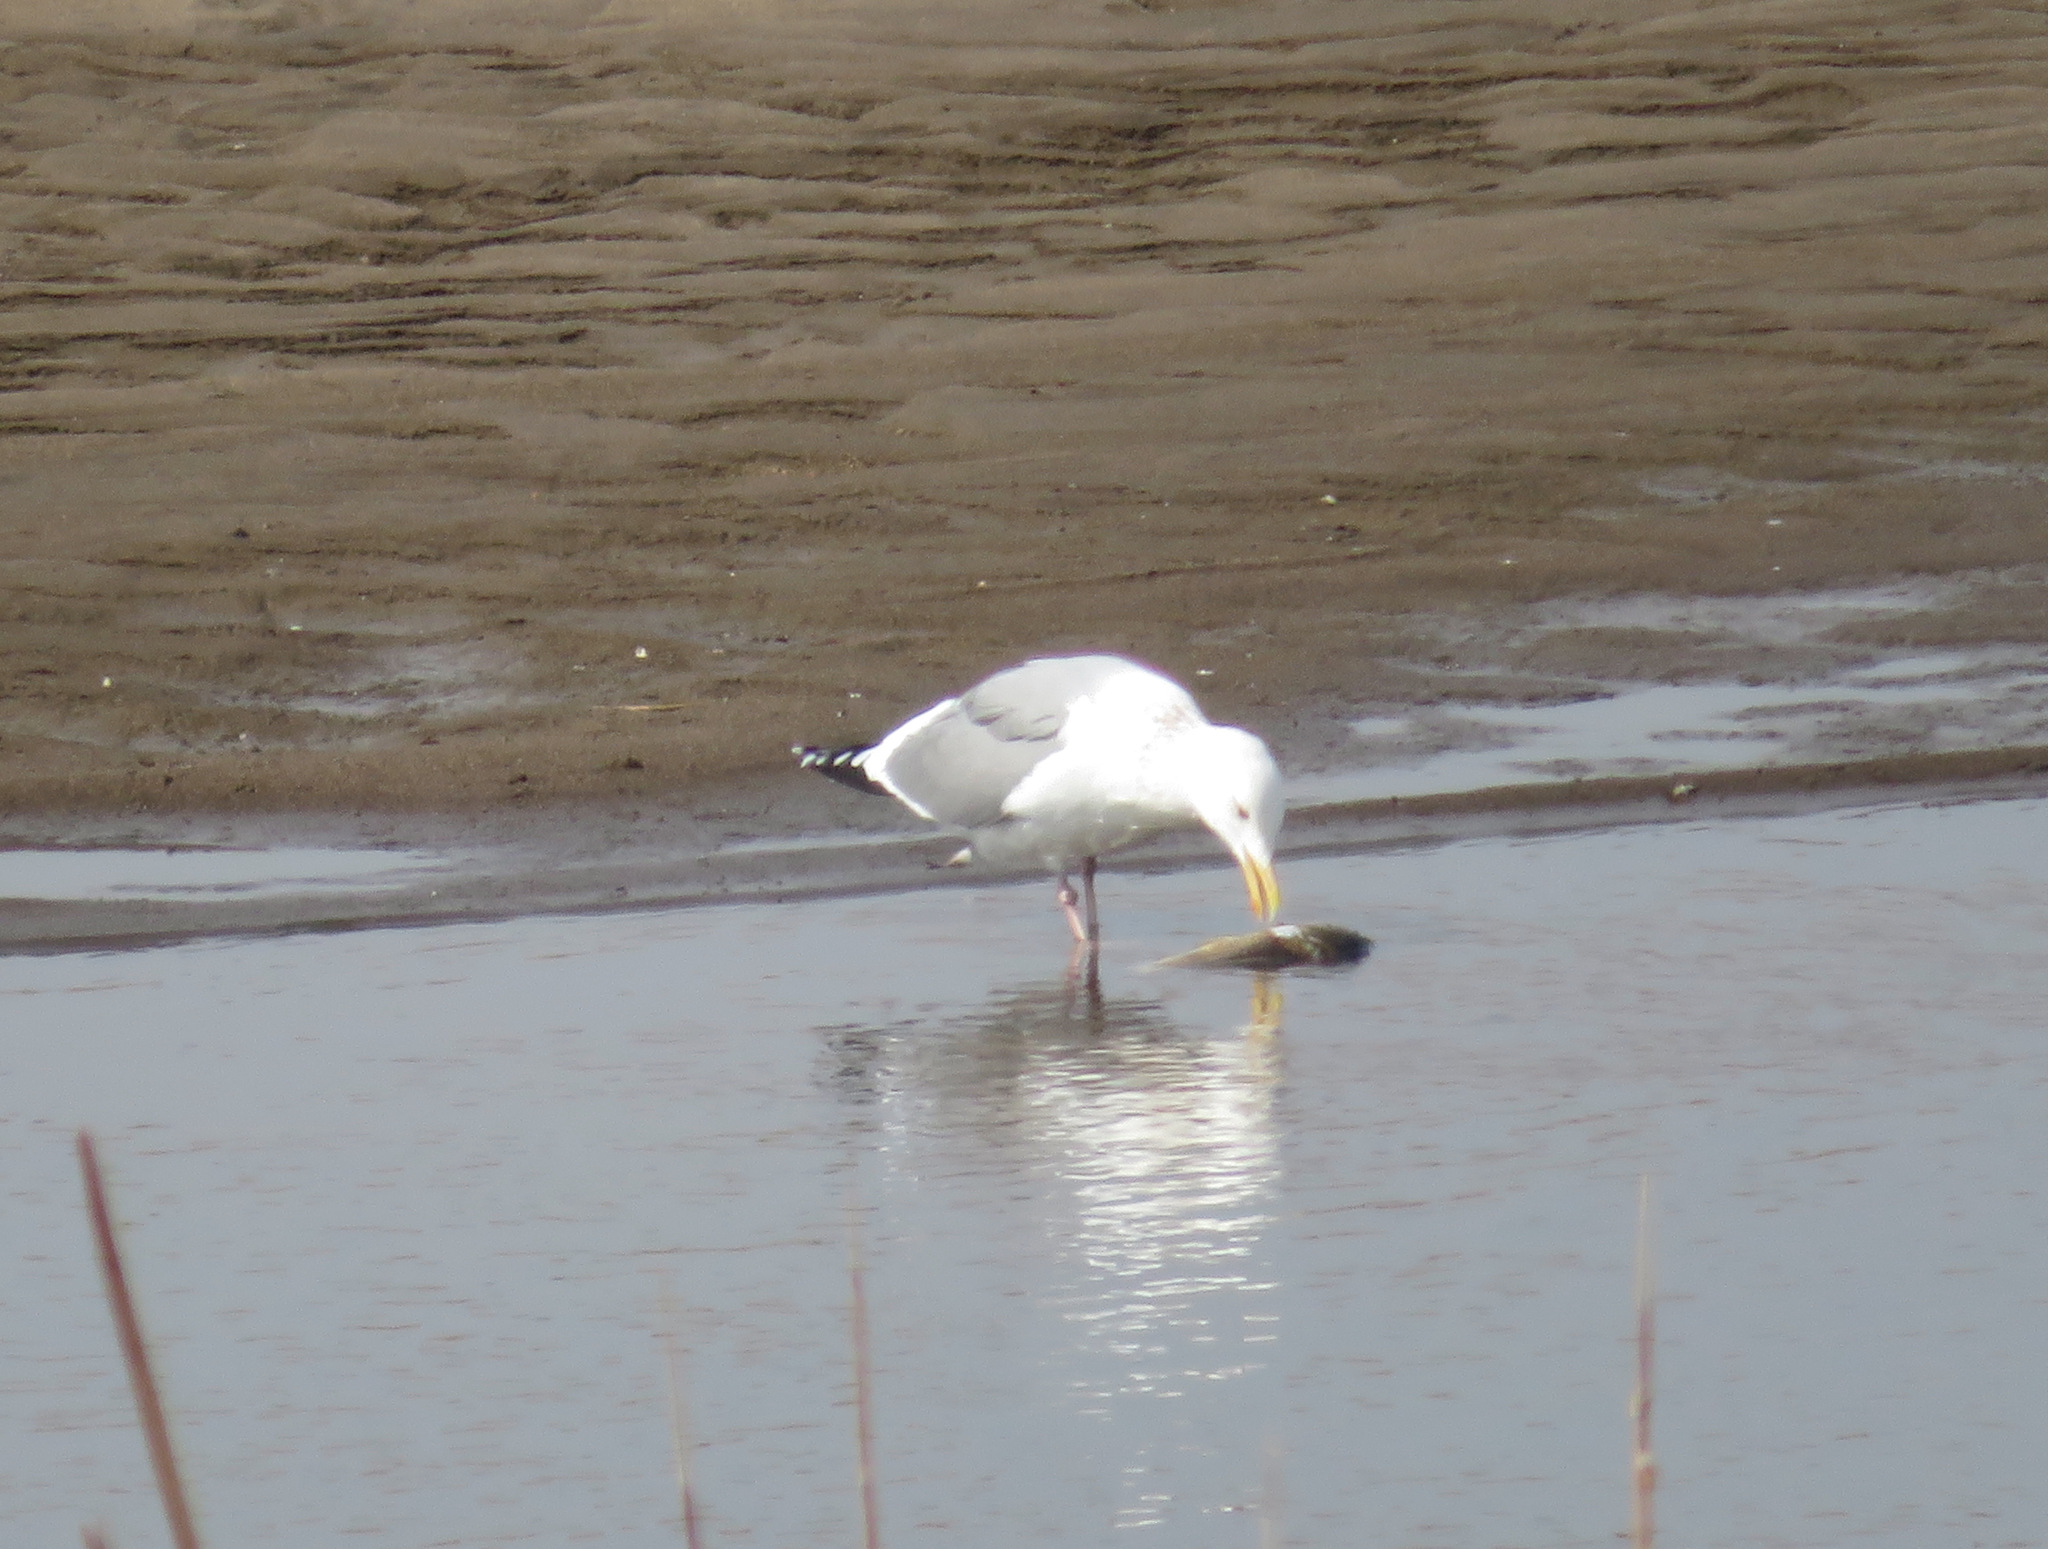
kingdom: Animalia
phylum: Chordata
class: Aves
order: Charadriiformes
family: Laridae
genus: Larus
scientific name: Larus vegae
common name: Vega gull
